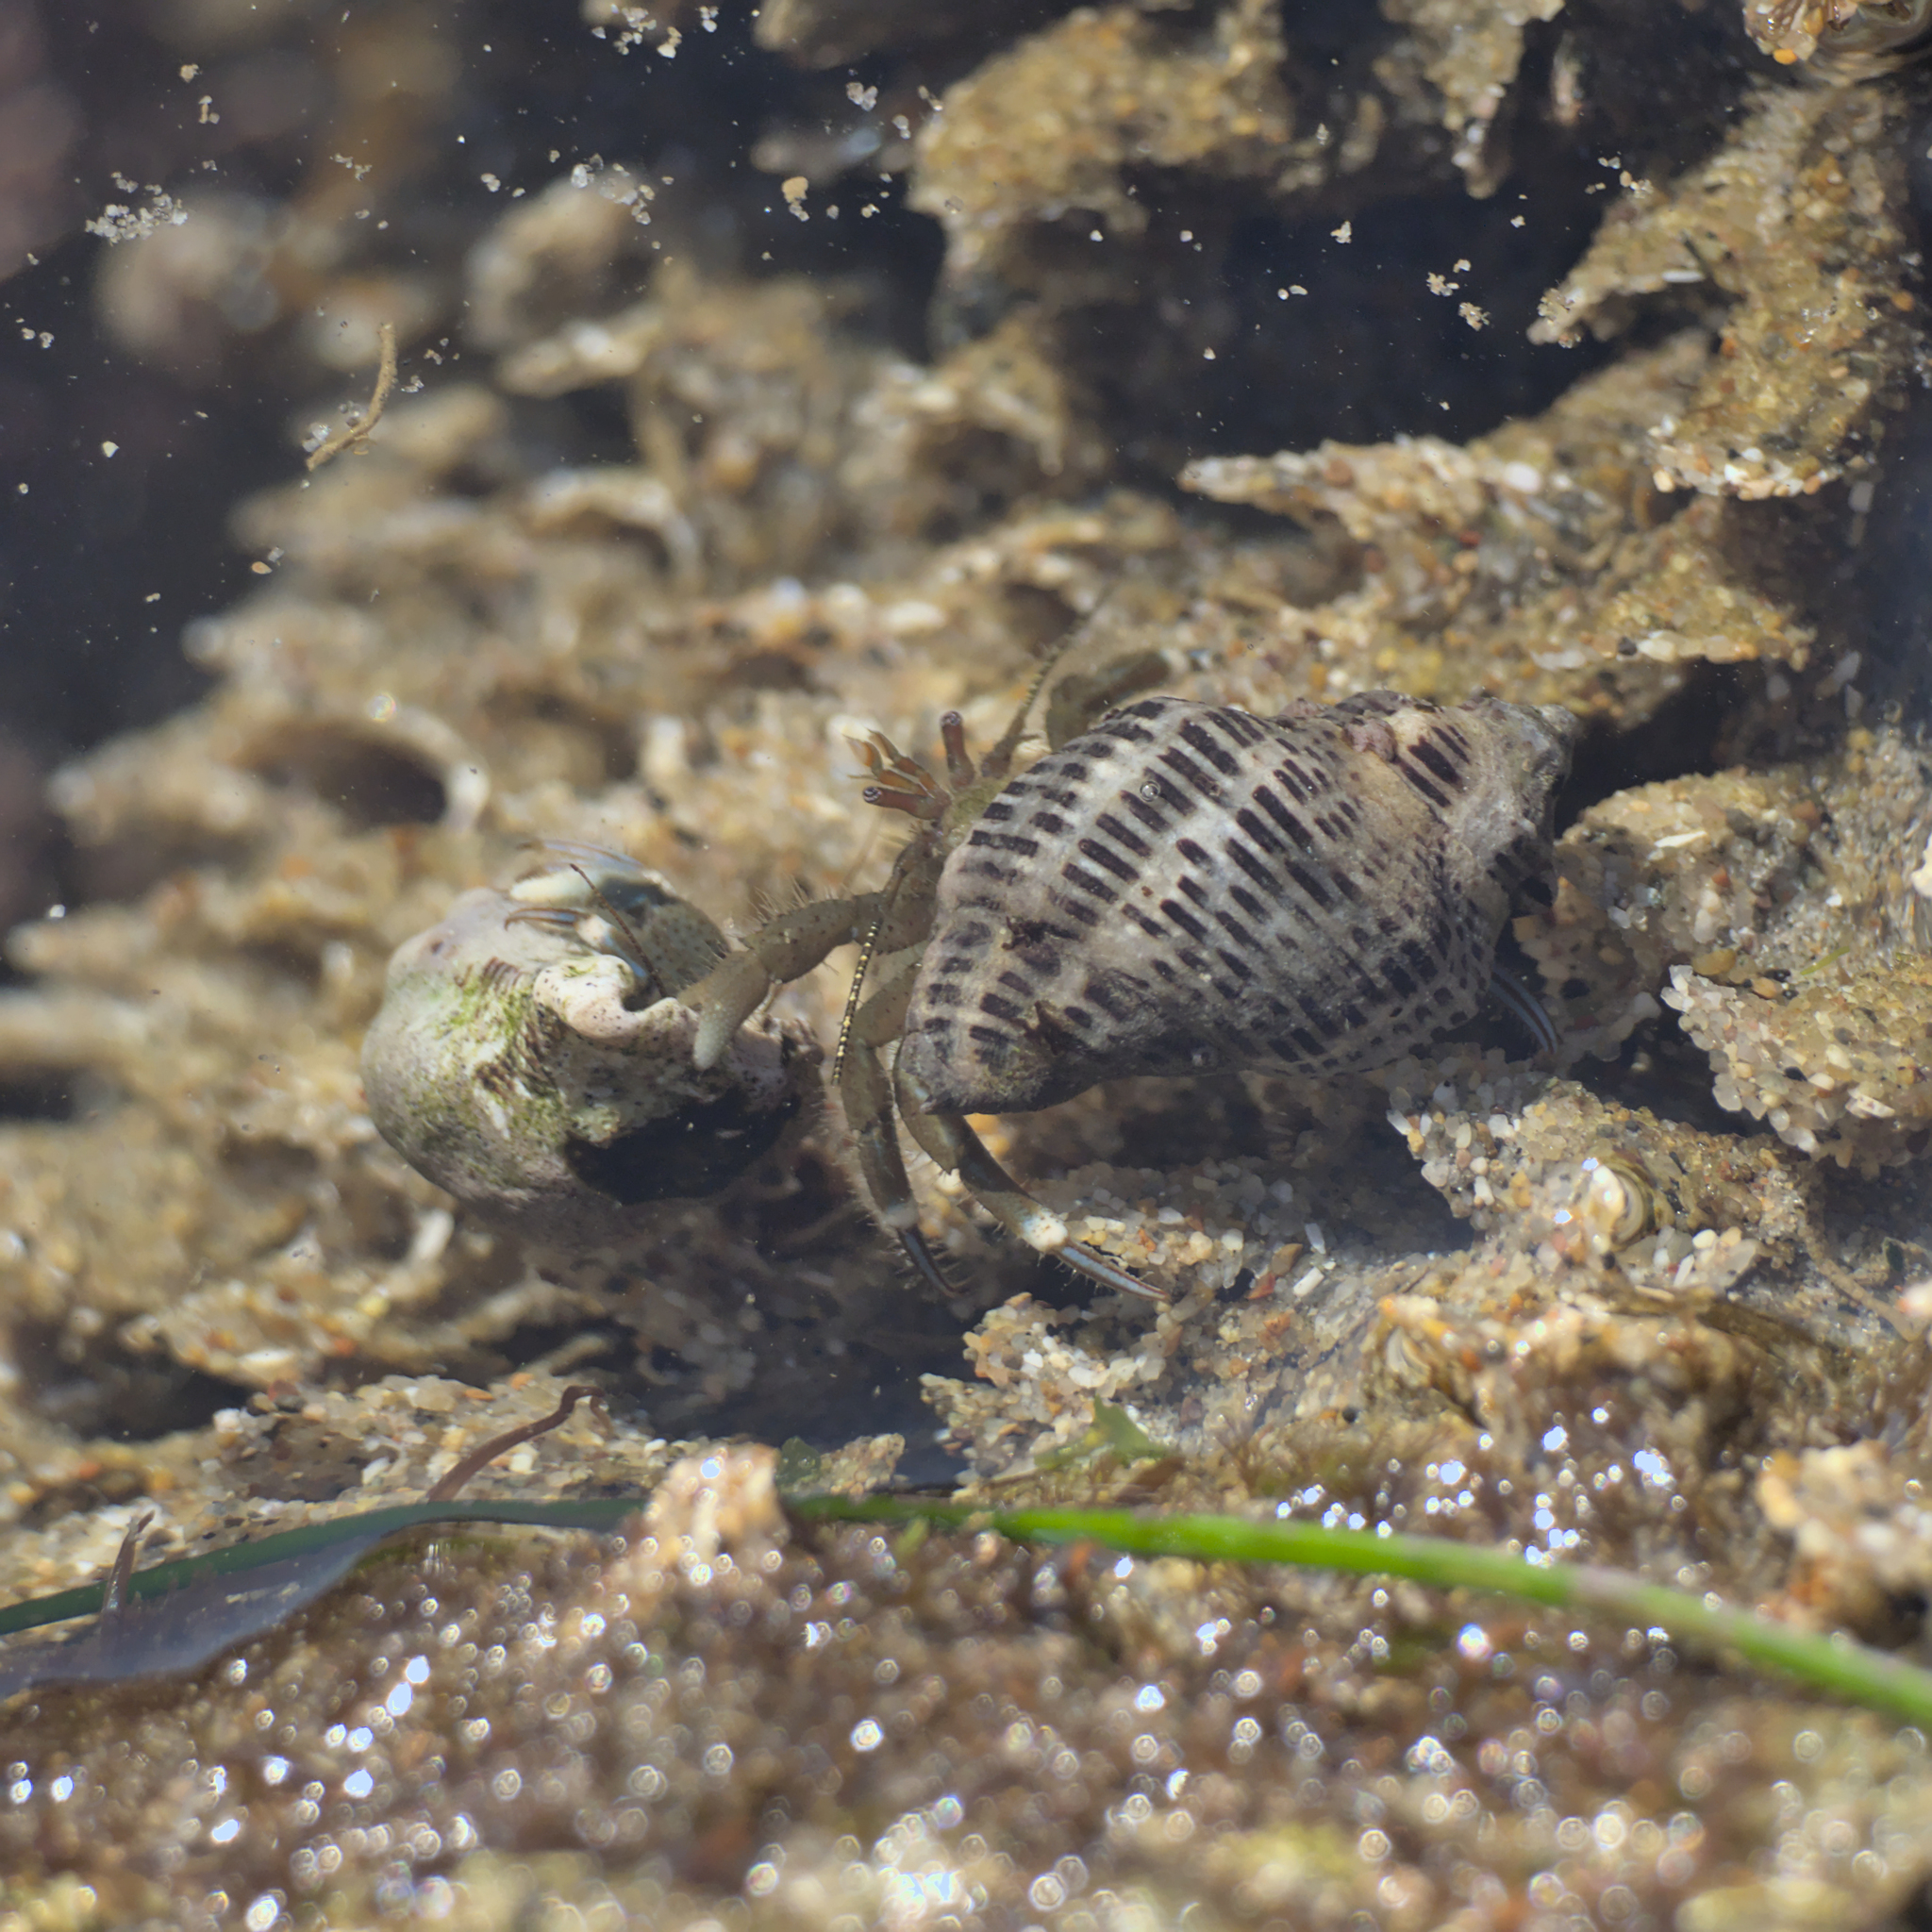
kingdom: Animalia
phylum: Arthropoda
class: Malacostraca
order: Decapoda
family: Paguridae
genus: Pagurus
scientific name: Pagurus venturensis
